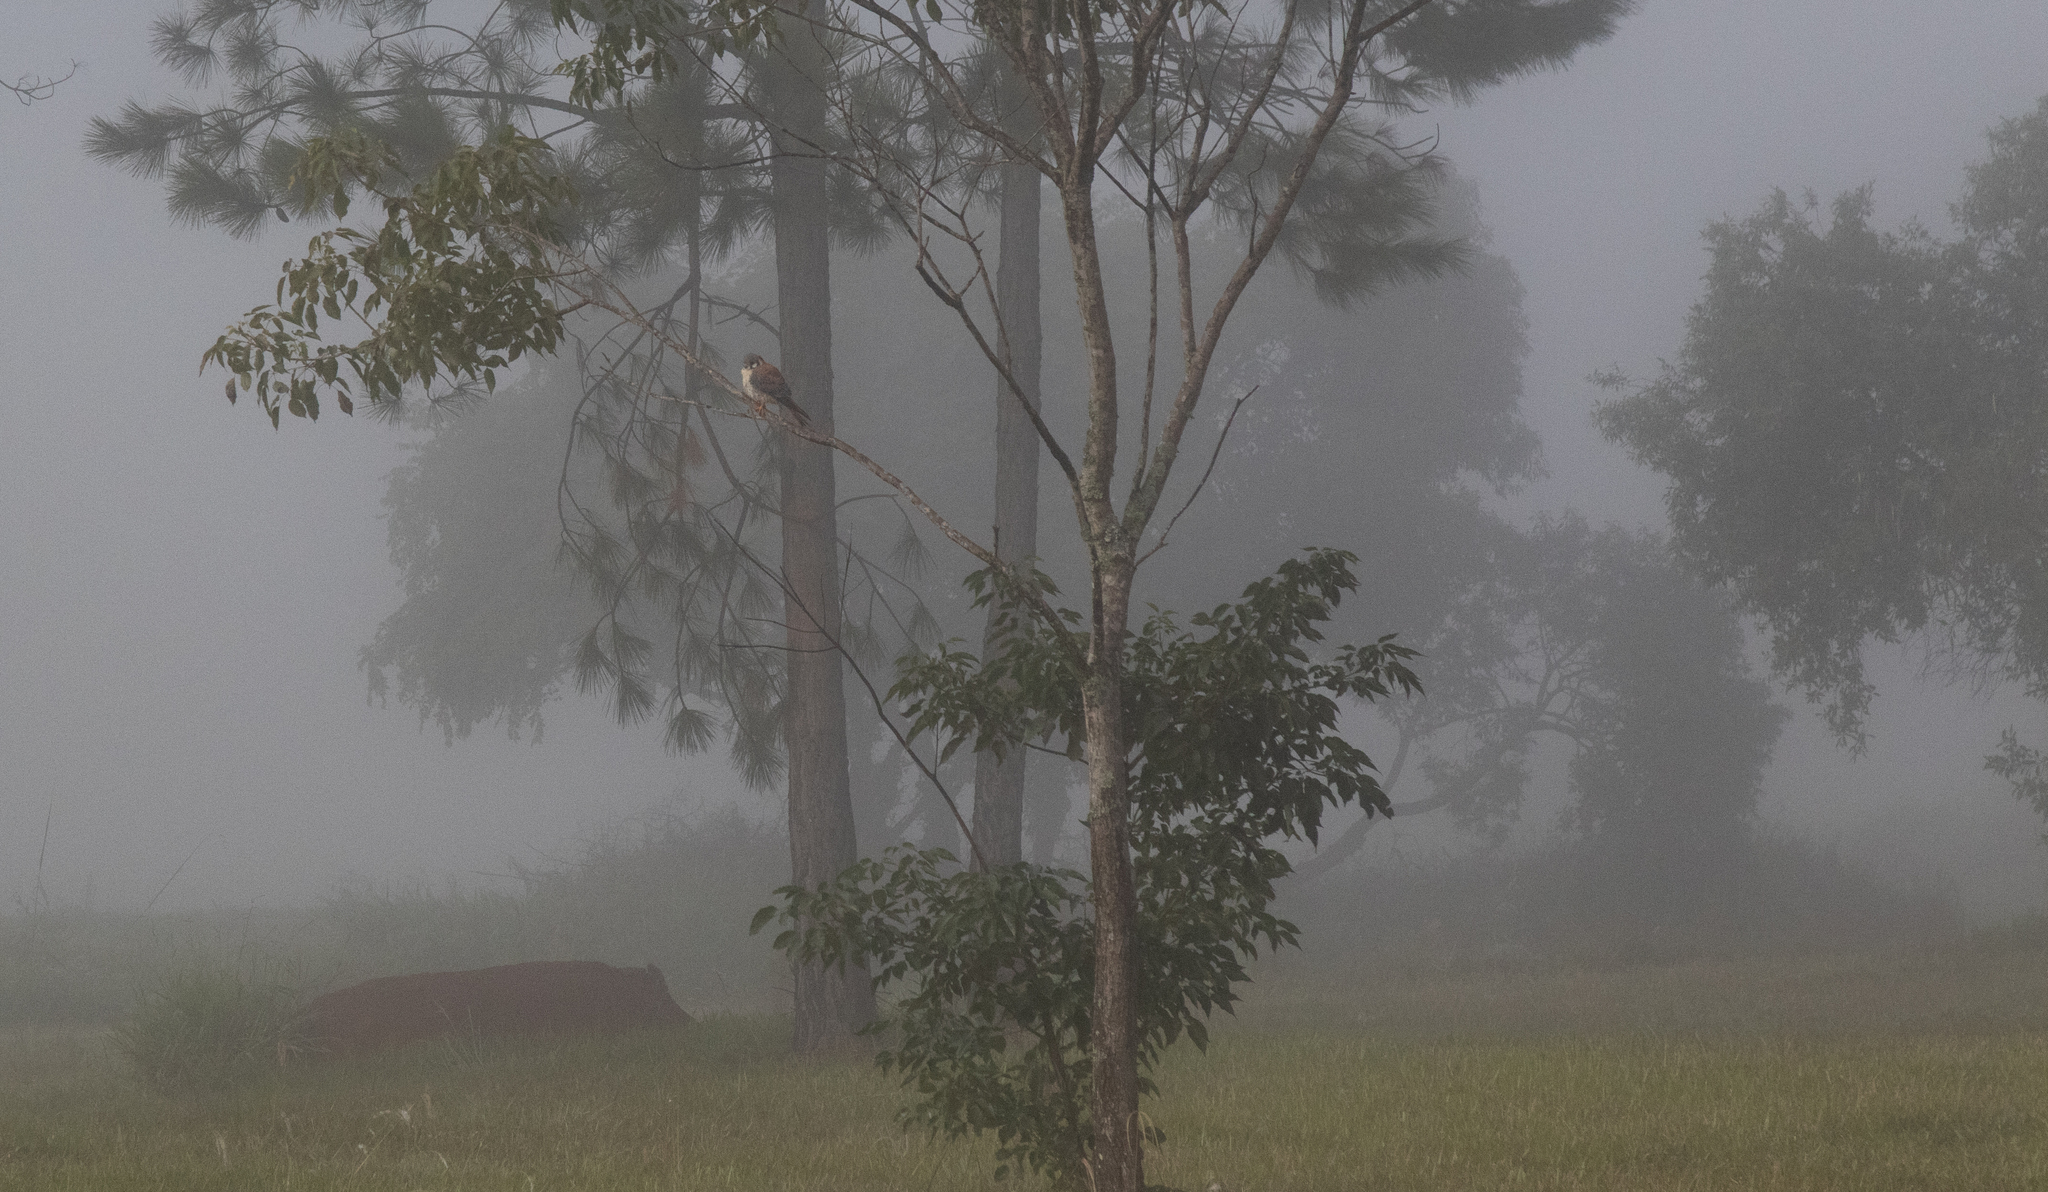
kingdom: Animalia
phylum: Chordata
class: Aves
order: Falconiformes
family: Falconidae
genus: Falco
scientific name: Falco sparverius
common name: American kestrel
